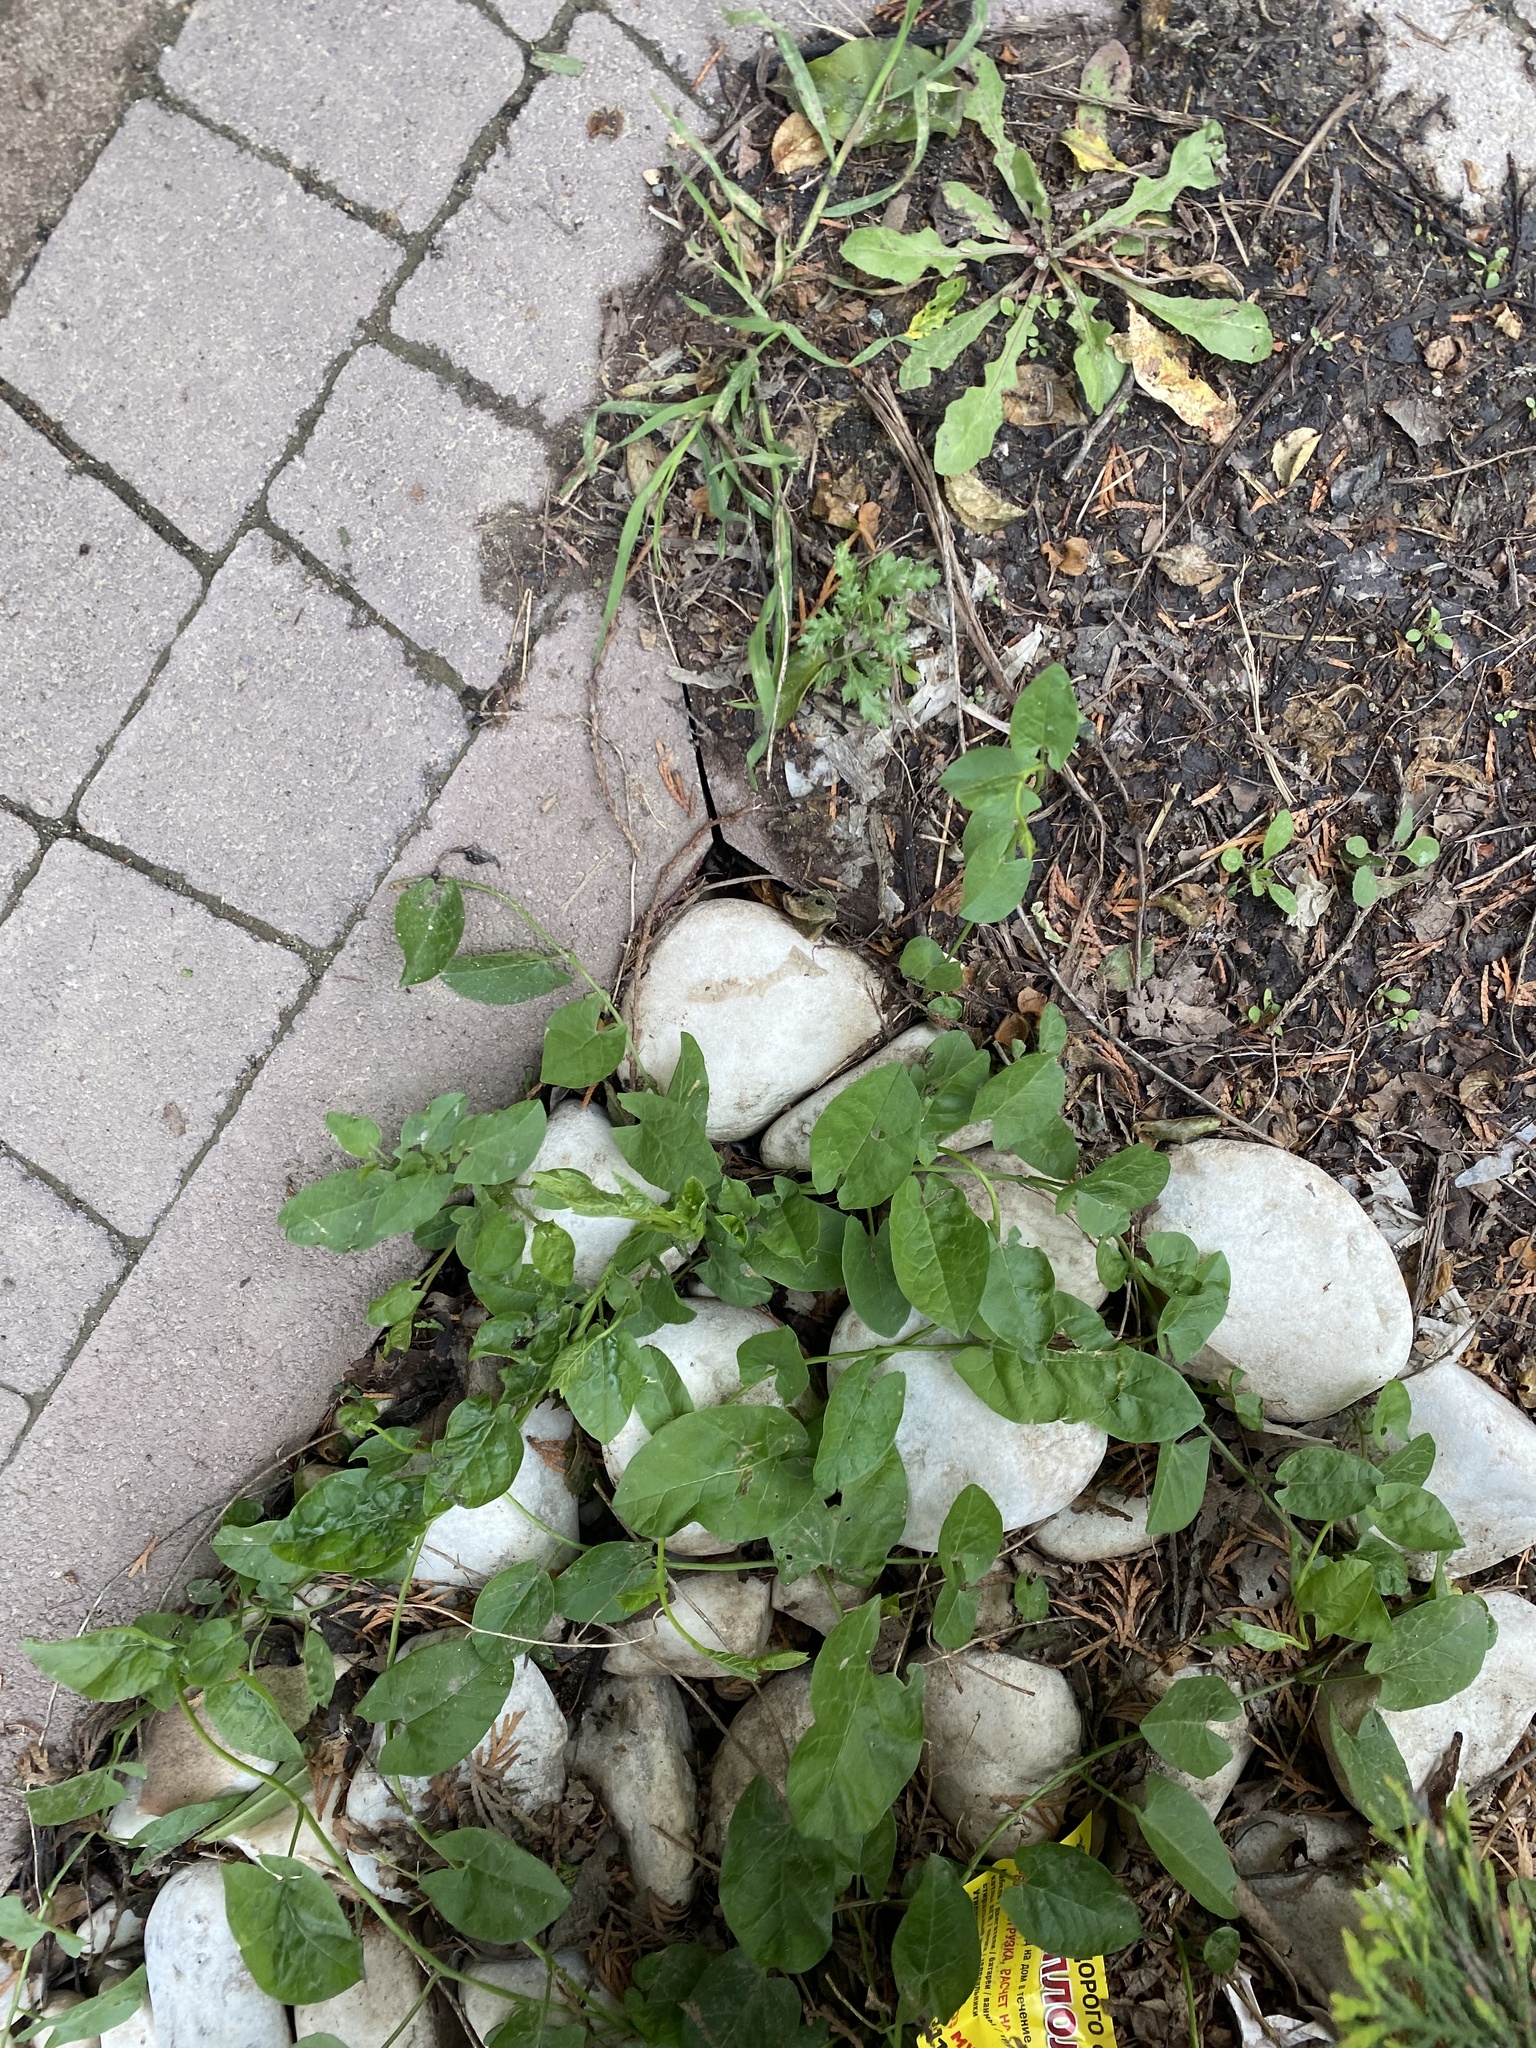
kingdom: Plantae
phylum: Tracheophyta
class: Magnoliopsida
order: Solanales
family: Convolvulaceae
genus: Convolvulus
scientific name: Convolvulus arvensis
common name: Field bindweed
